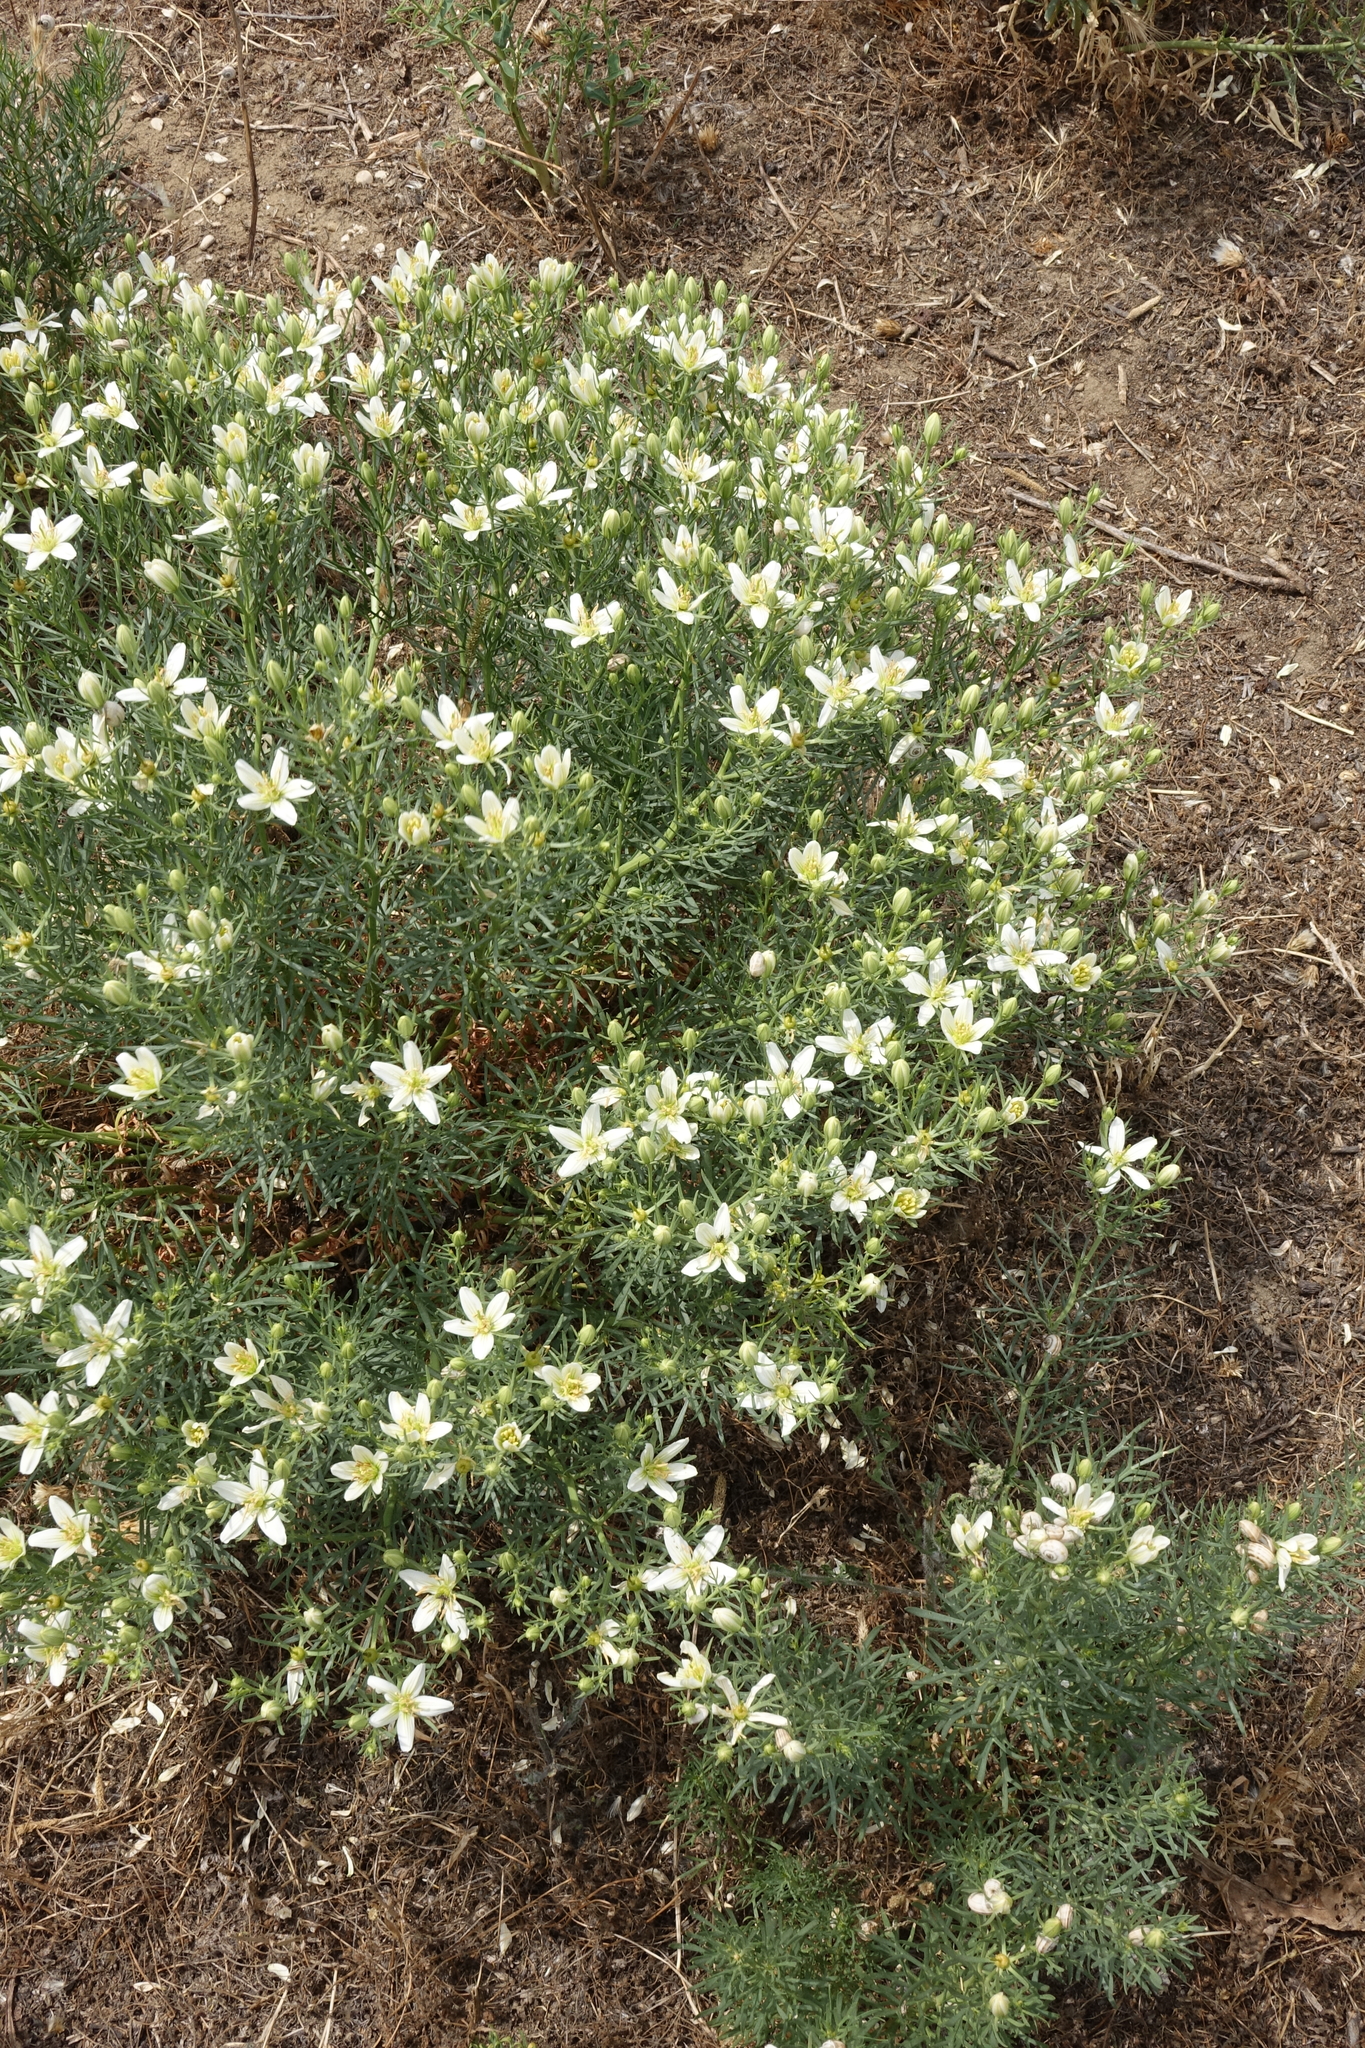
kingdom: Plantae
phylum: Tracheophyta
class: Magnoliopsida
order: Sapindales
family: Tetradiclidaceae
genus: Peganum
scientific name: Peganum harmala
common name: Harmal peganum
